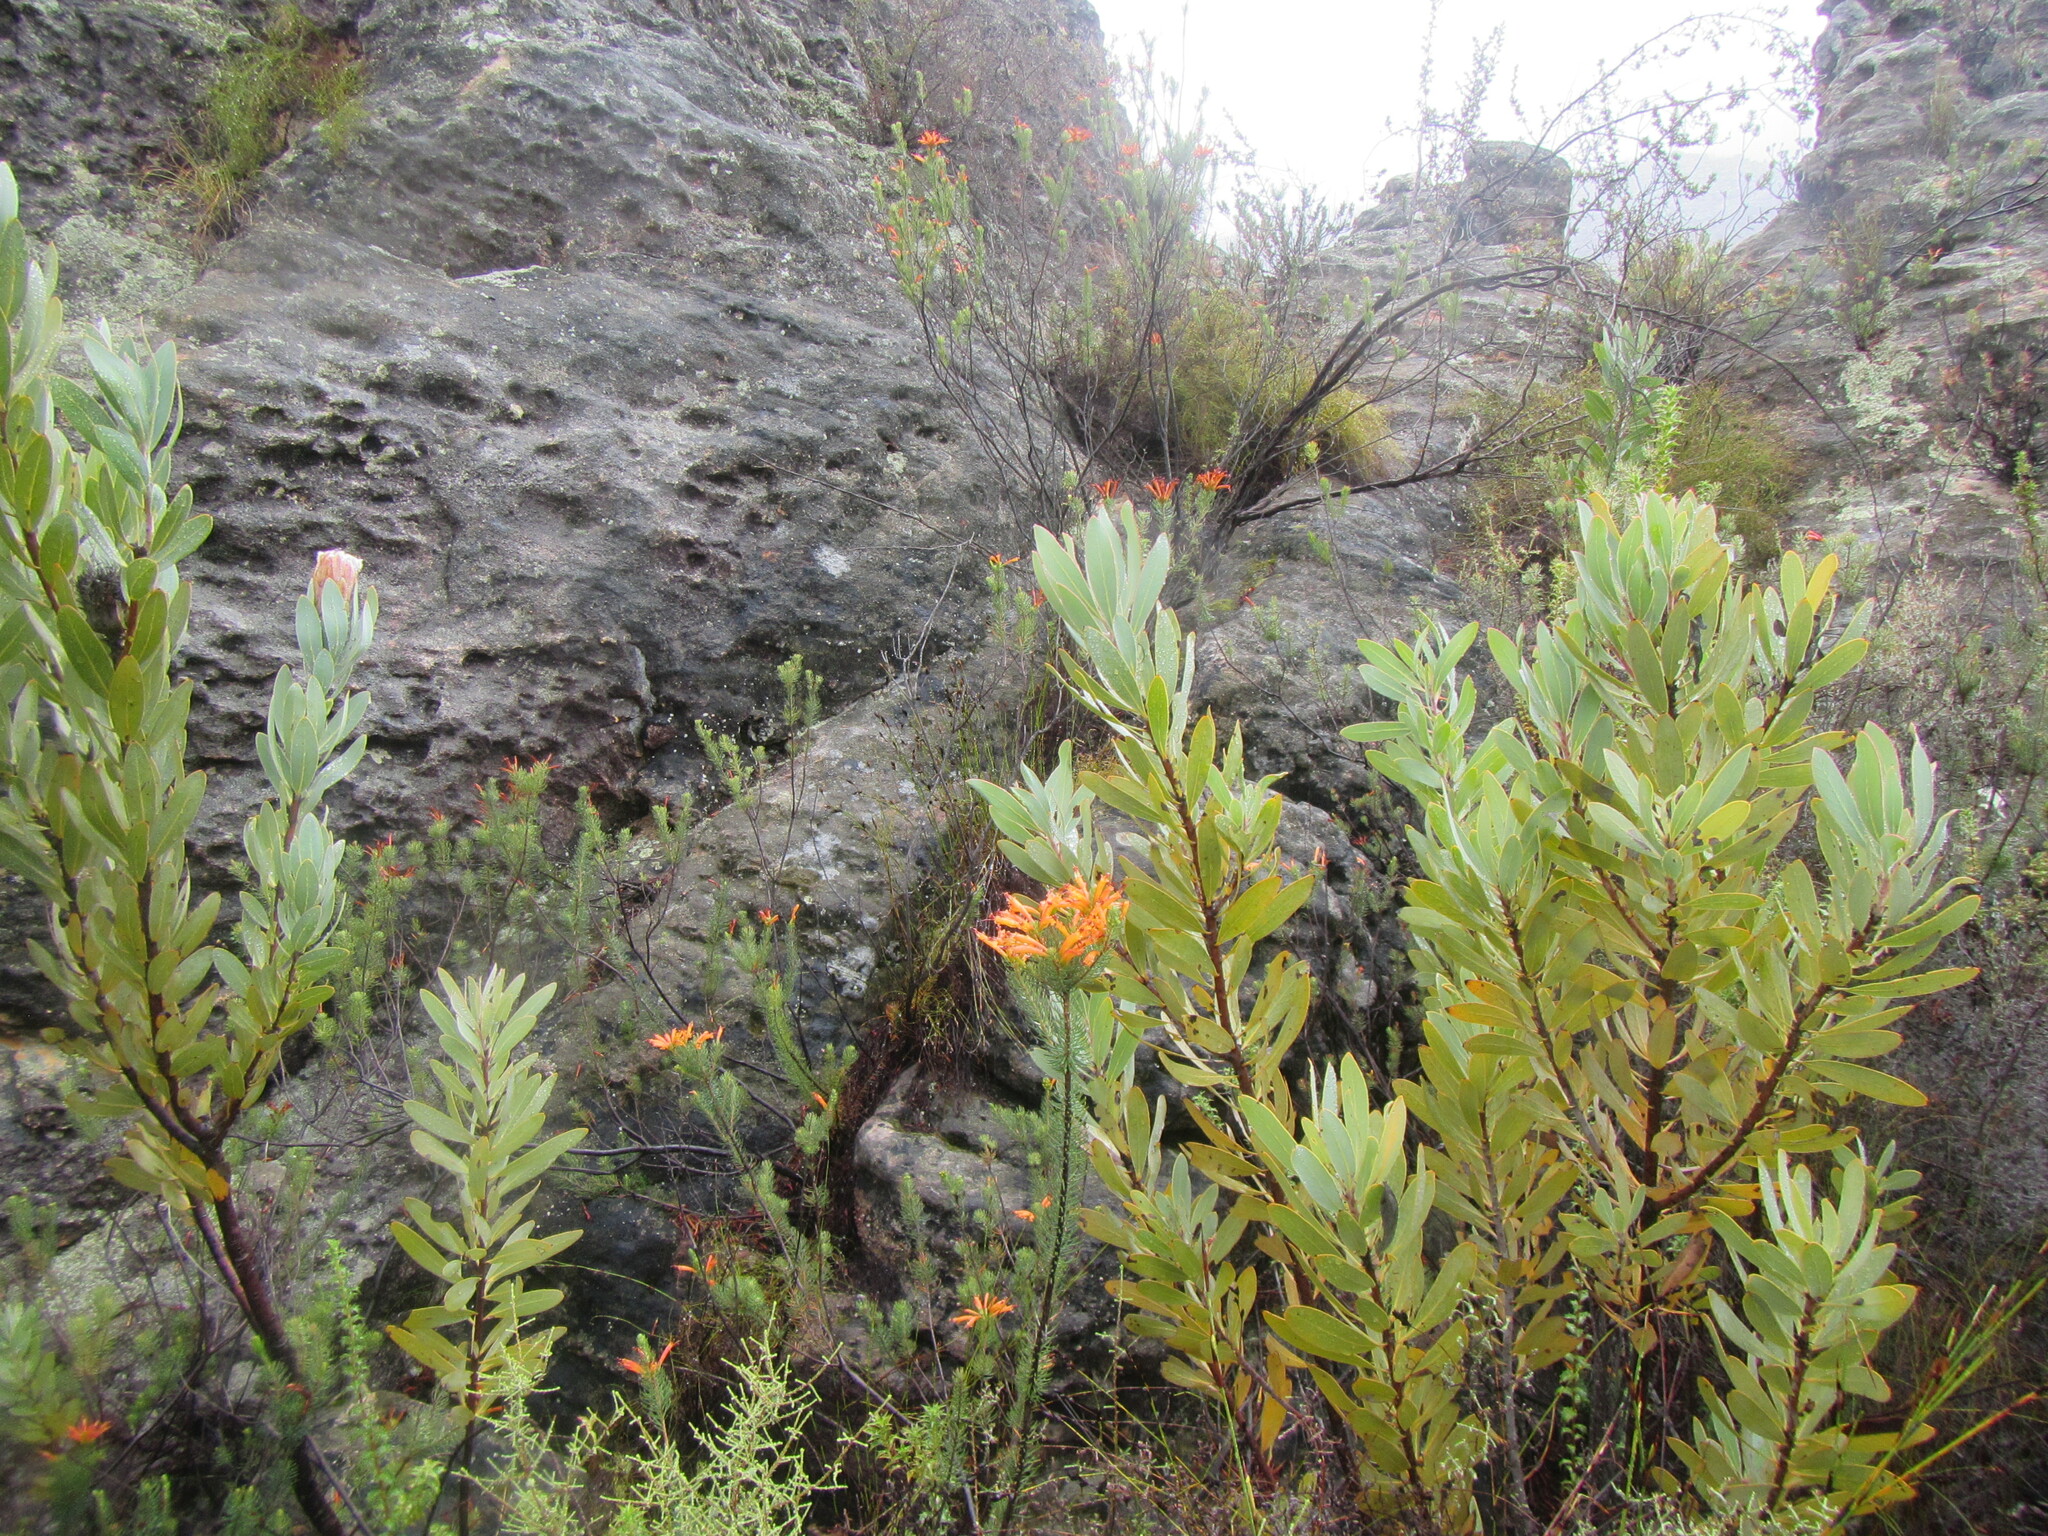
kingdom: Plantae
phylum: Tracheophyta
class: Magnoliopsida
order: Ericales
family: Ericaceae
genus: Erica
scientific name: Erica grandiflora
